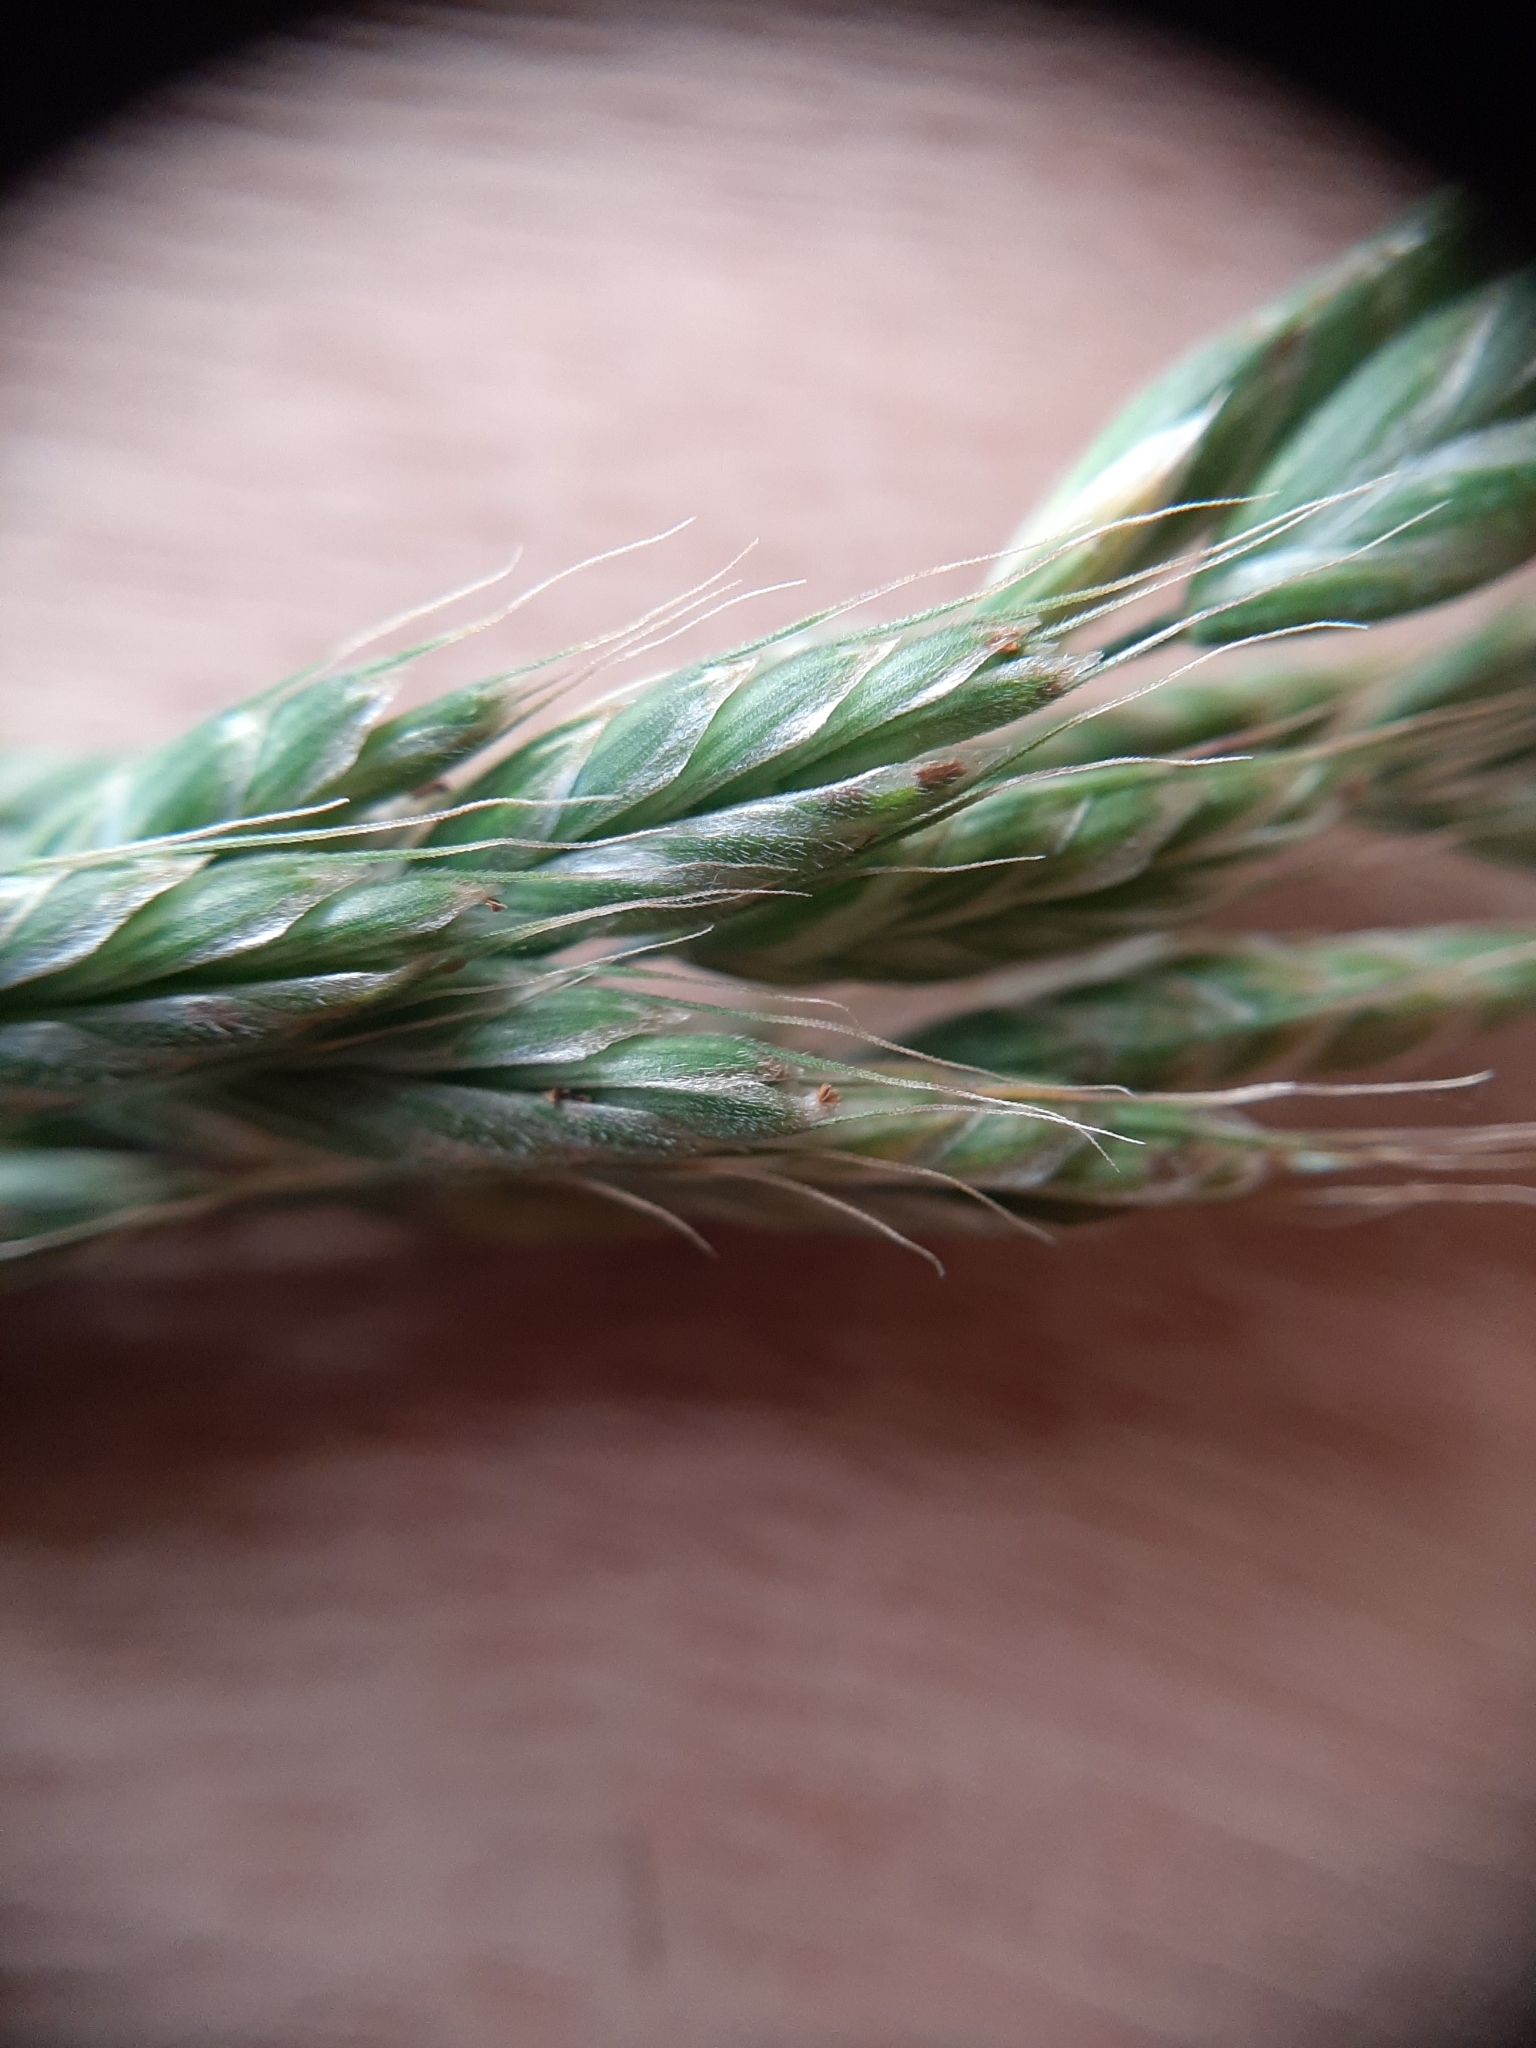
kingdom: Plantae
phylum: Tracheophyta
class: Liliopsida
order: Poales
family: Poaceae
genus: Bromus
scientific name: Bromus hordeaceus
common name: Soft brome
